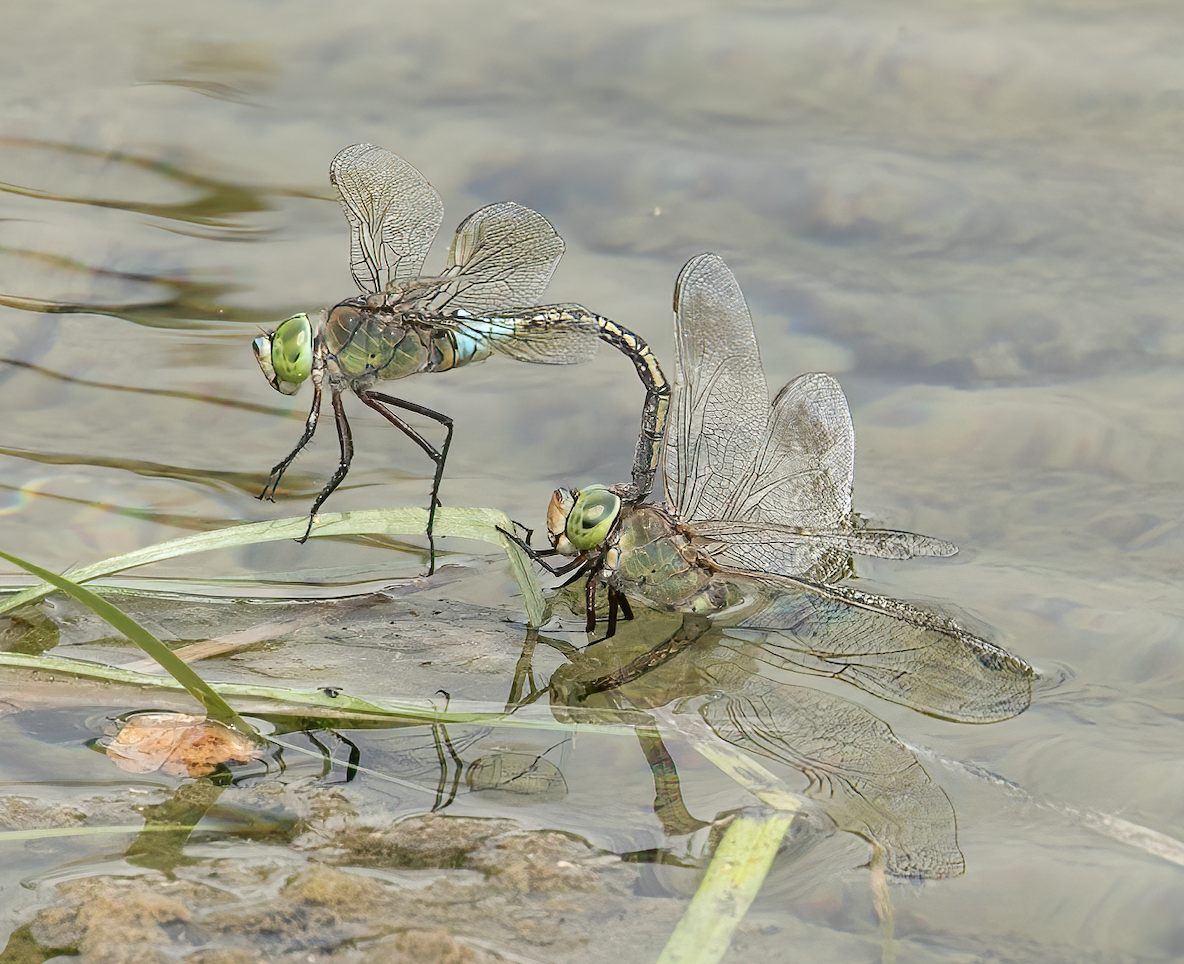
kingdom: Animalia
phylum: Arthropoda
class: Insecta
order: Odonata
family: Aeshnidae
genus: Anax
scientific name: Anax parthenope
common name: Lesser emperor
